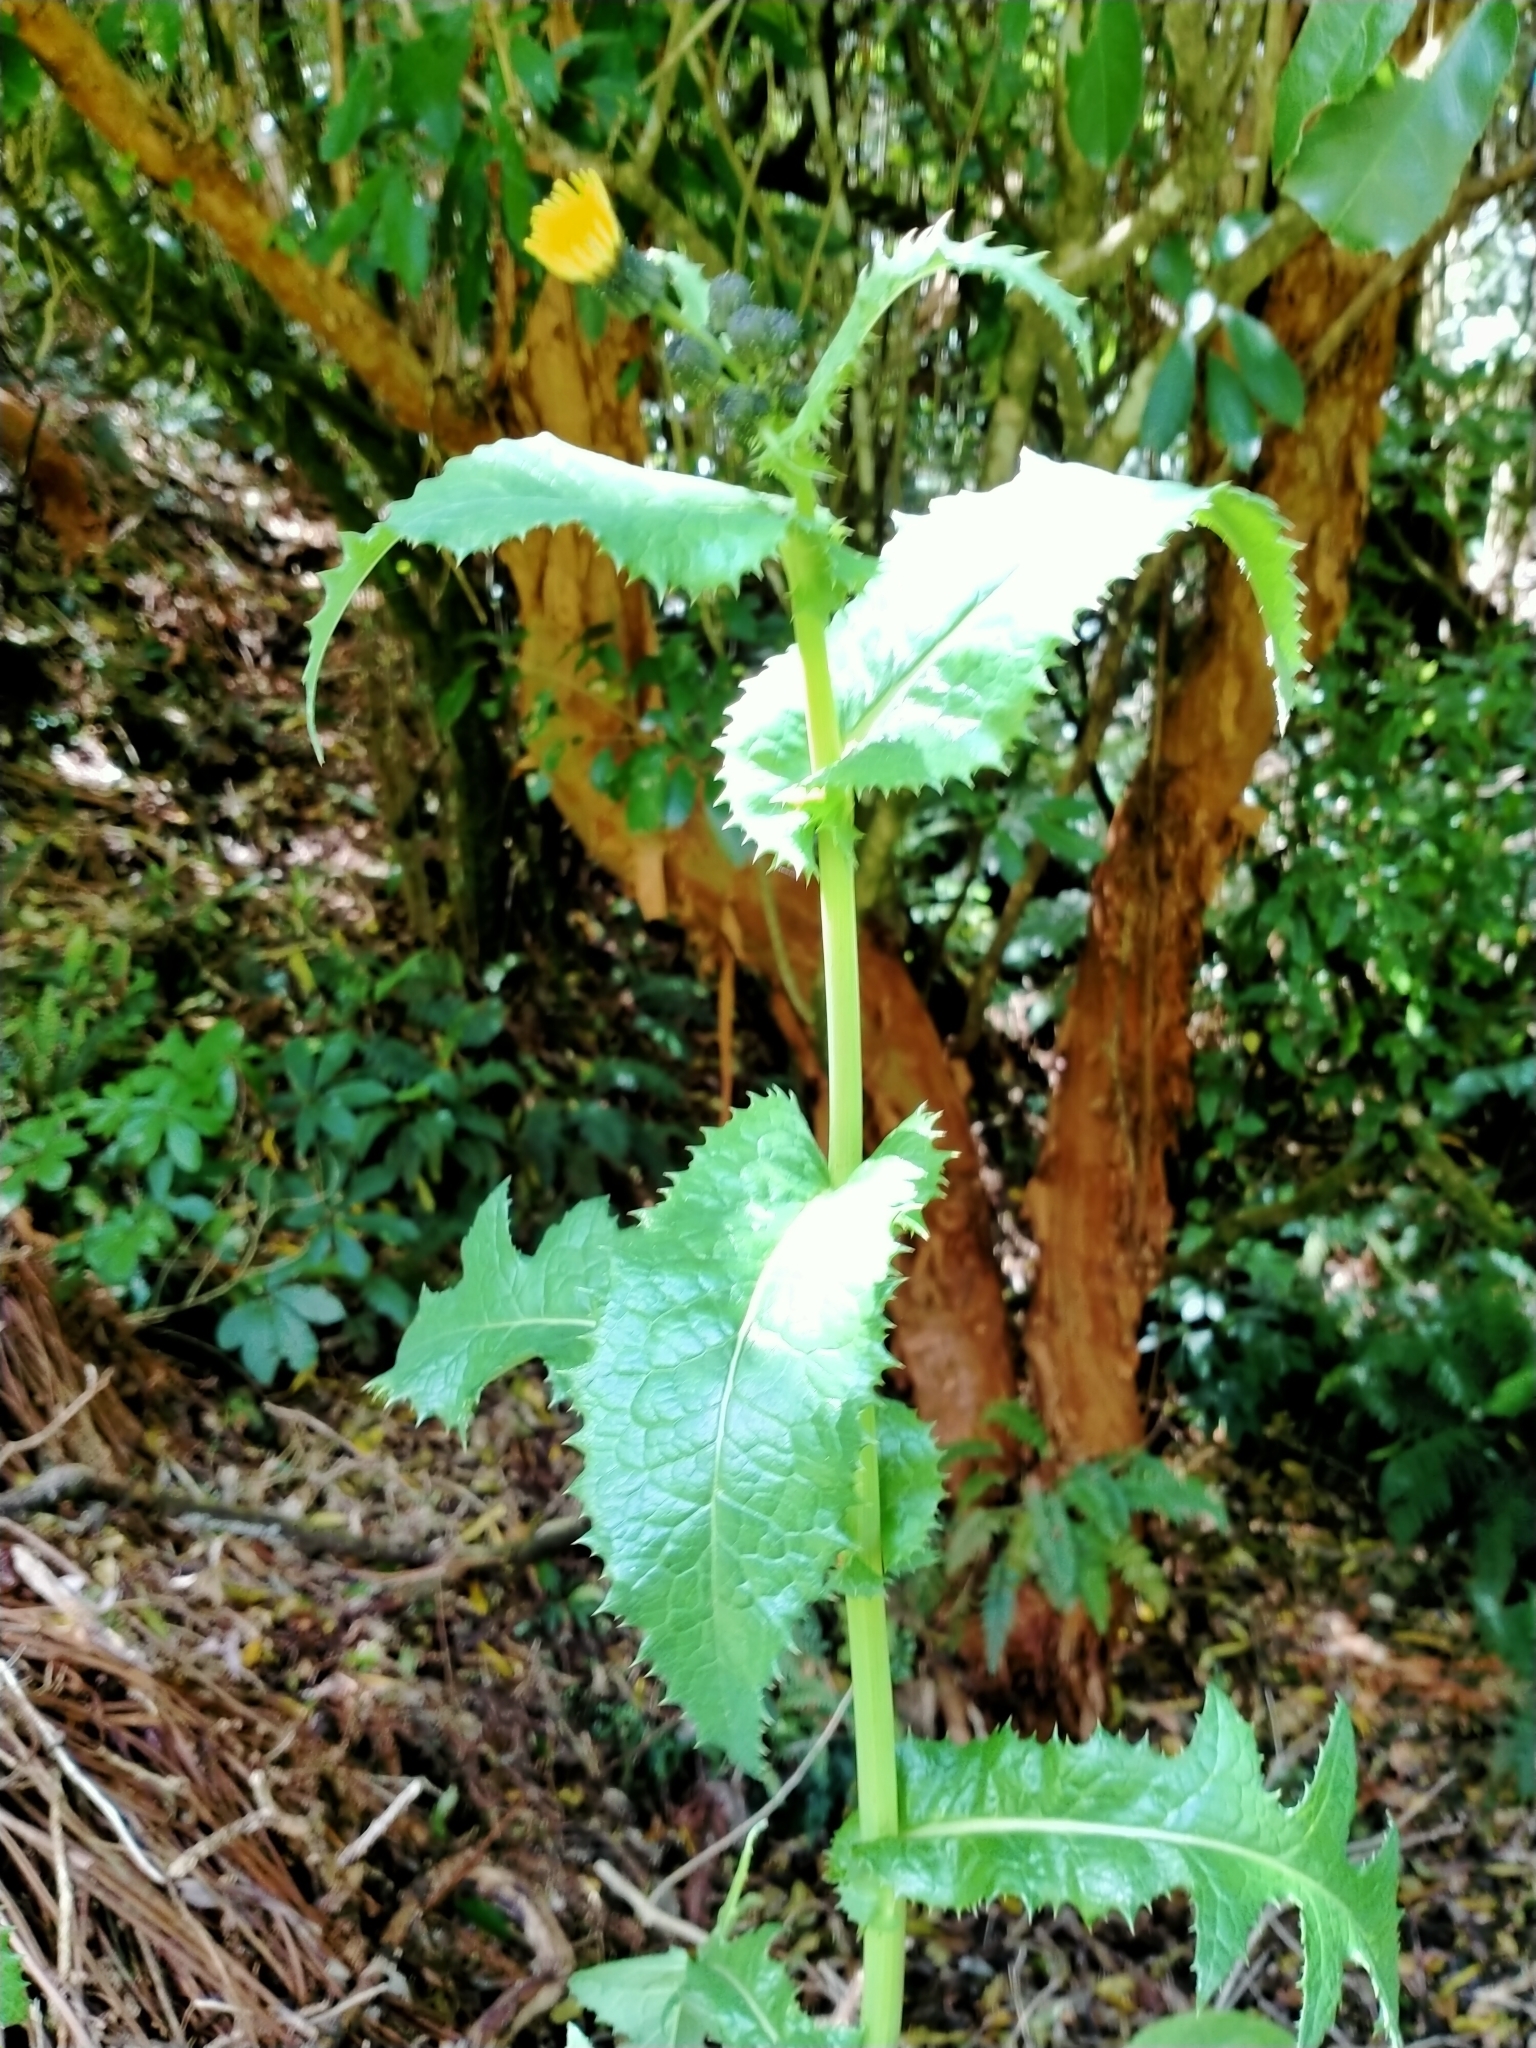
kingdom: Plantae
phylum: Tracheophyta
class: Magnoliopsida
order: Asterales
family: Asteraceae
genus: Sonchus
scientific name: Sonchus asper
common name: Prickly sow-thistle
